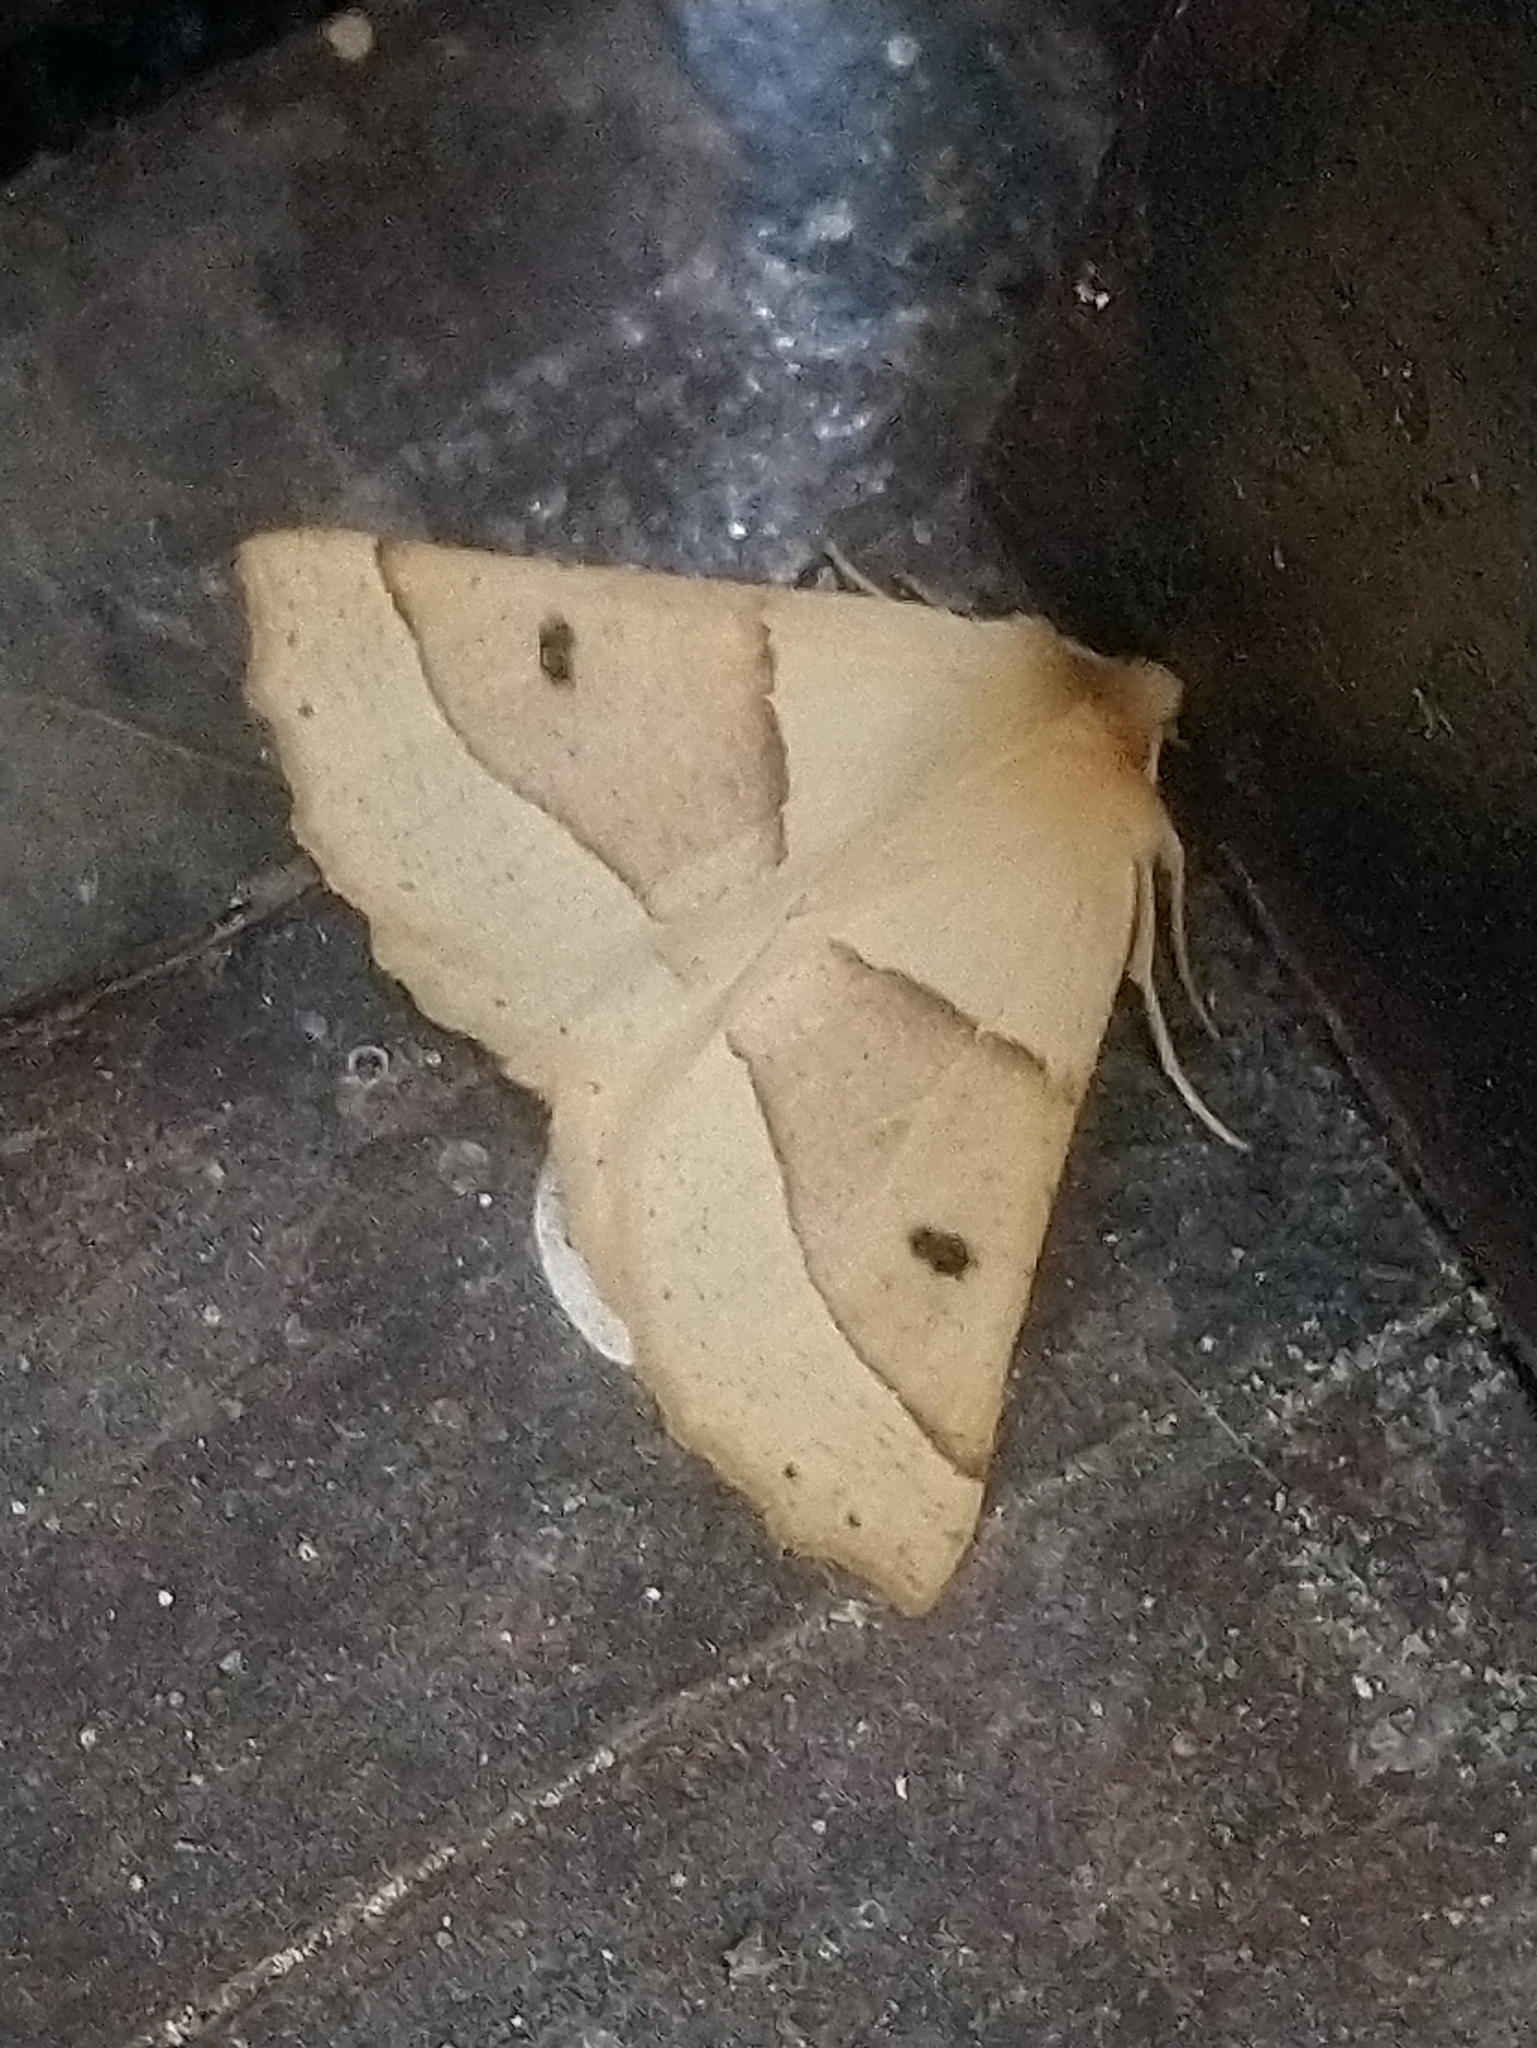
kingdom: Animalia
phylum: Arthropoda
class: Insecta
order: Lepidoptera
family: Geometridae
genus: Crocallis
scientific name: Crocallis elinguaria
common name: Scalloped oak
